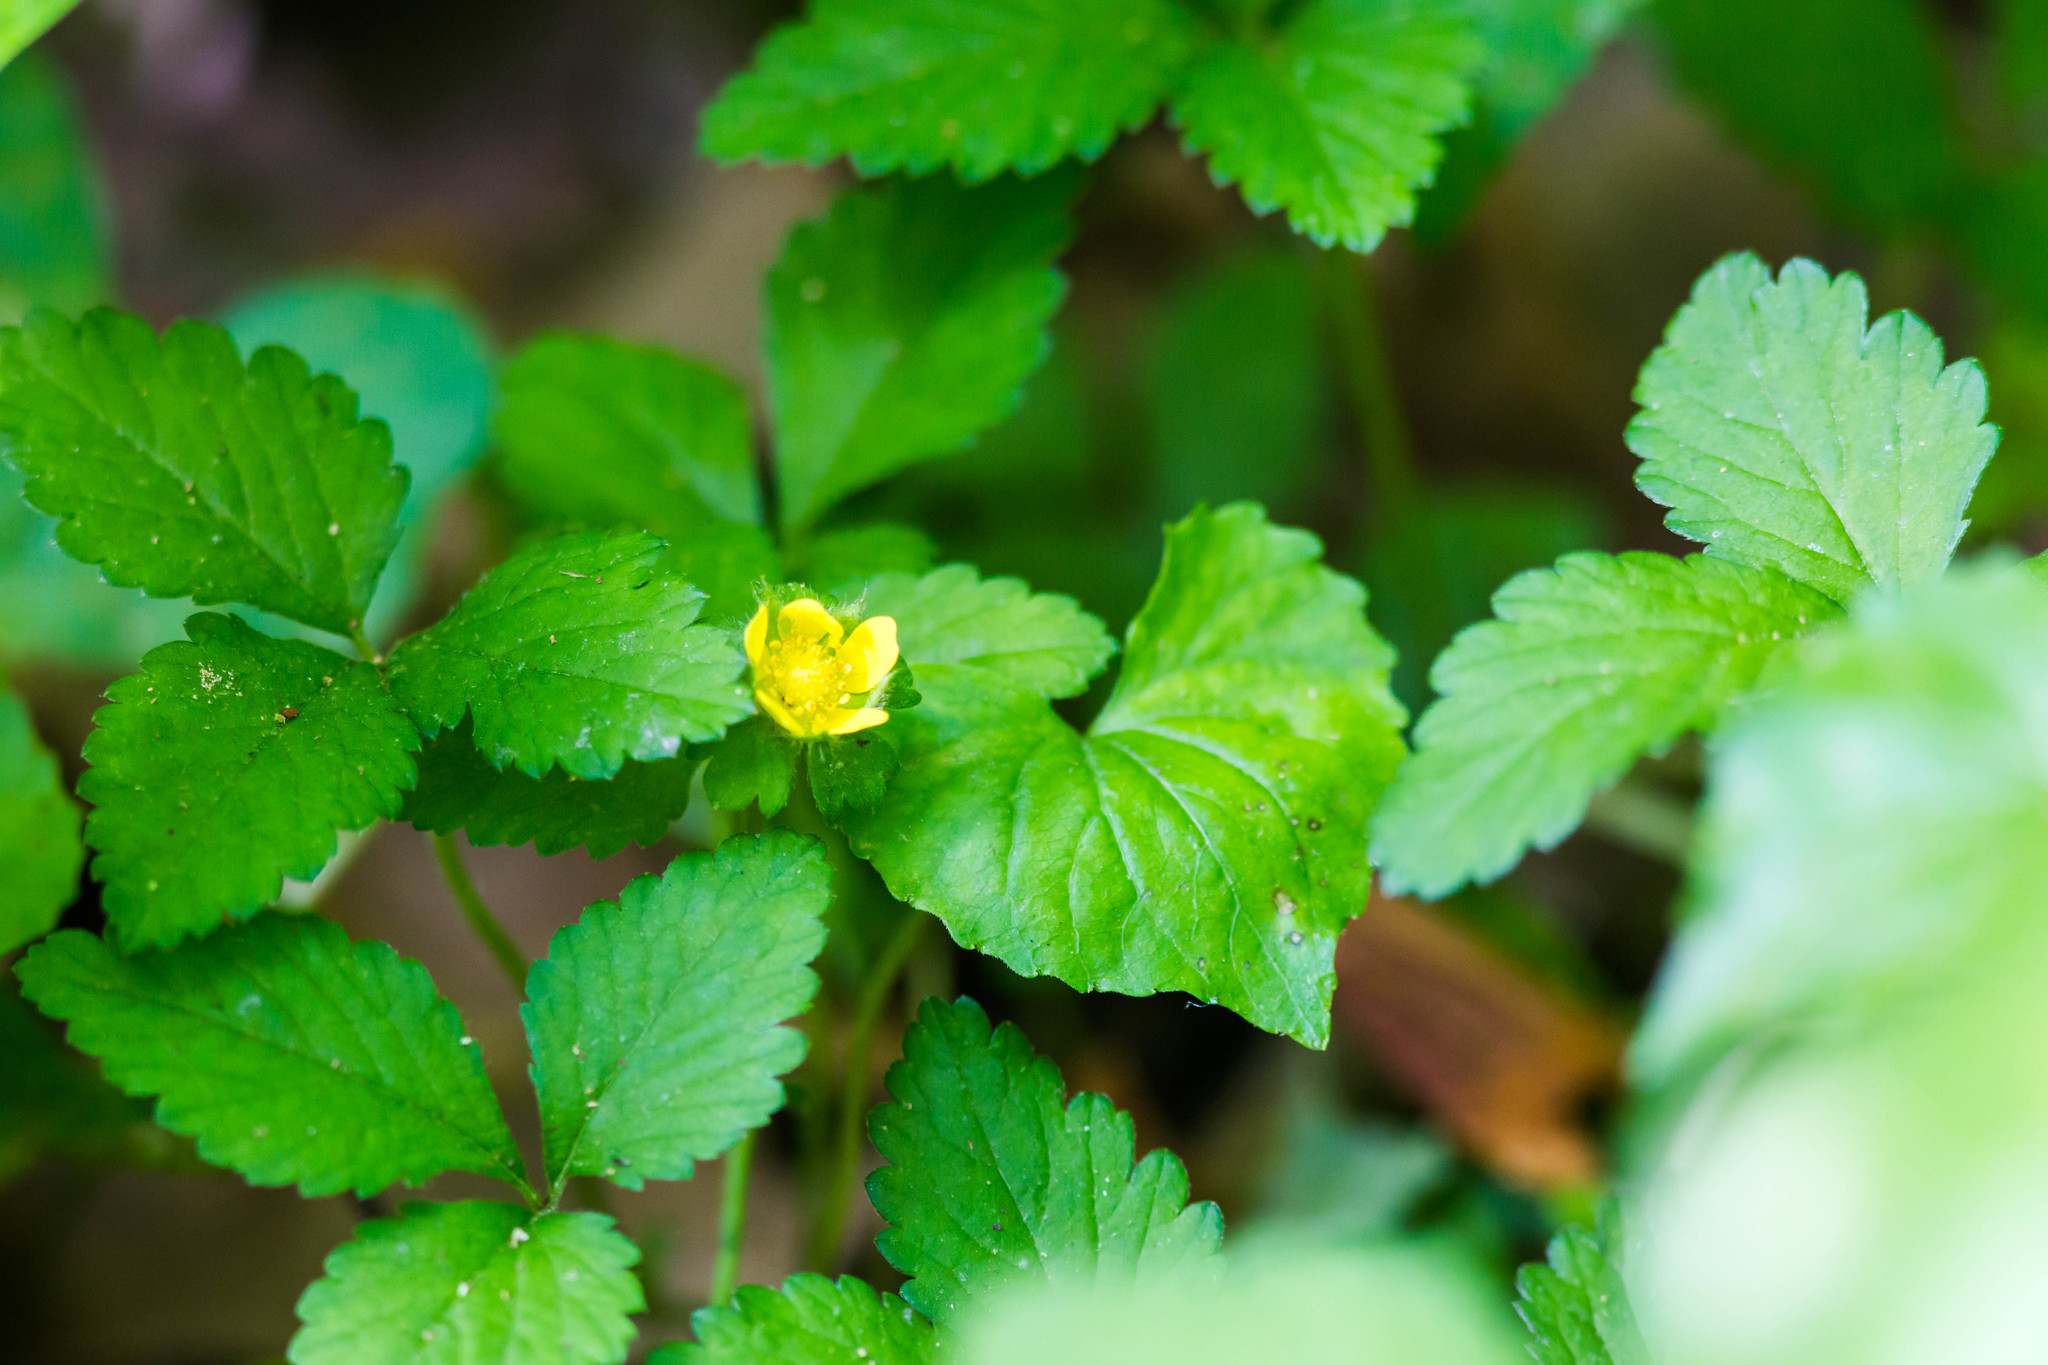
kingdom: Plantae
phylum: Tracheophyta
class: Magnoliopsida
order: Rosales
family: Rosaceae
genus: Potentilla
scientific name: Potentilla indica
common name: Yellow-flowered strawberry
